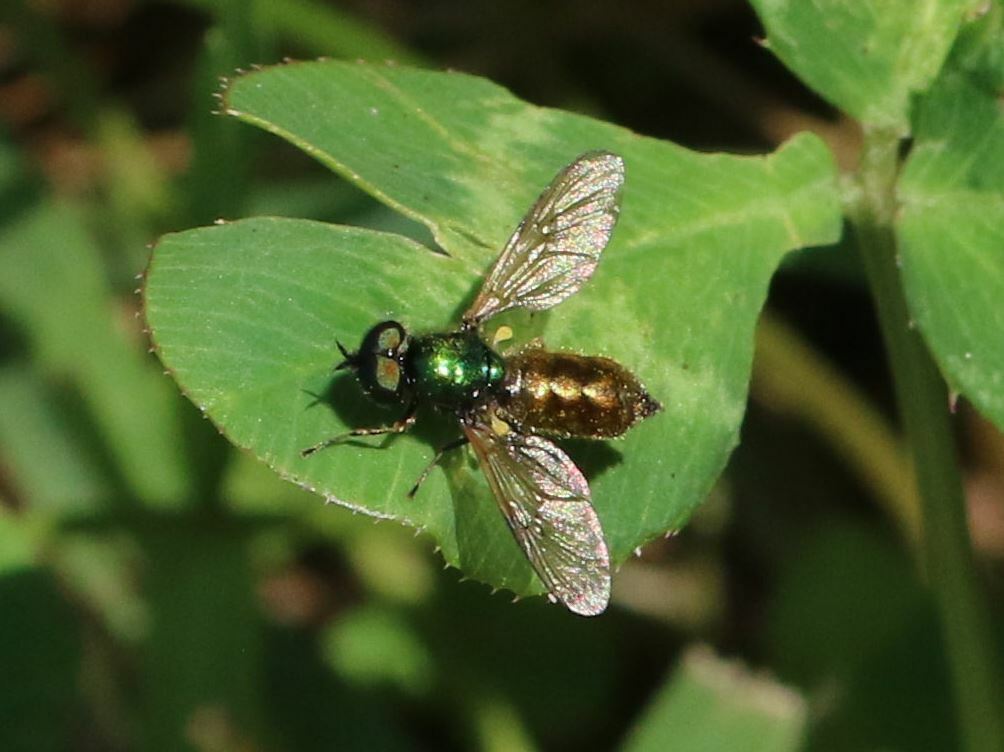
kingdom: Animalia
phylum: Arthropoda
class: Insecta
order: Diptera
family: Stratiomyidae
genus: Chloromyia
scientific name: Chloromyia formosa
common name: Soldier fly
